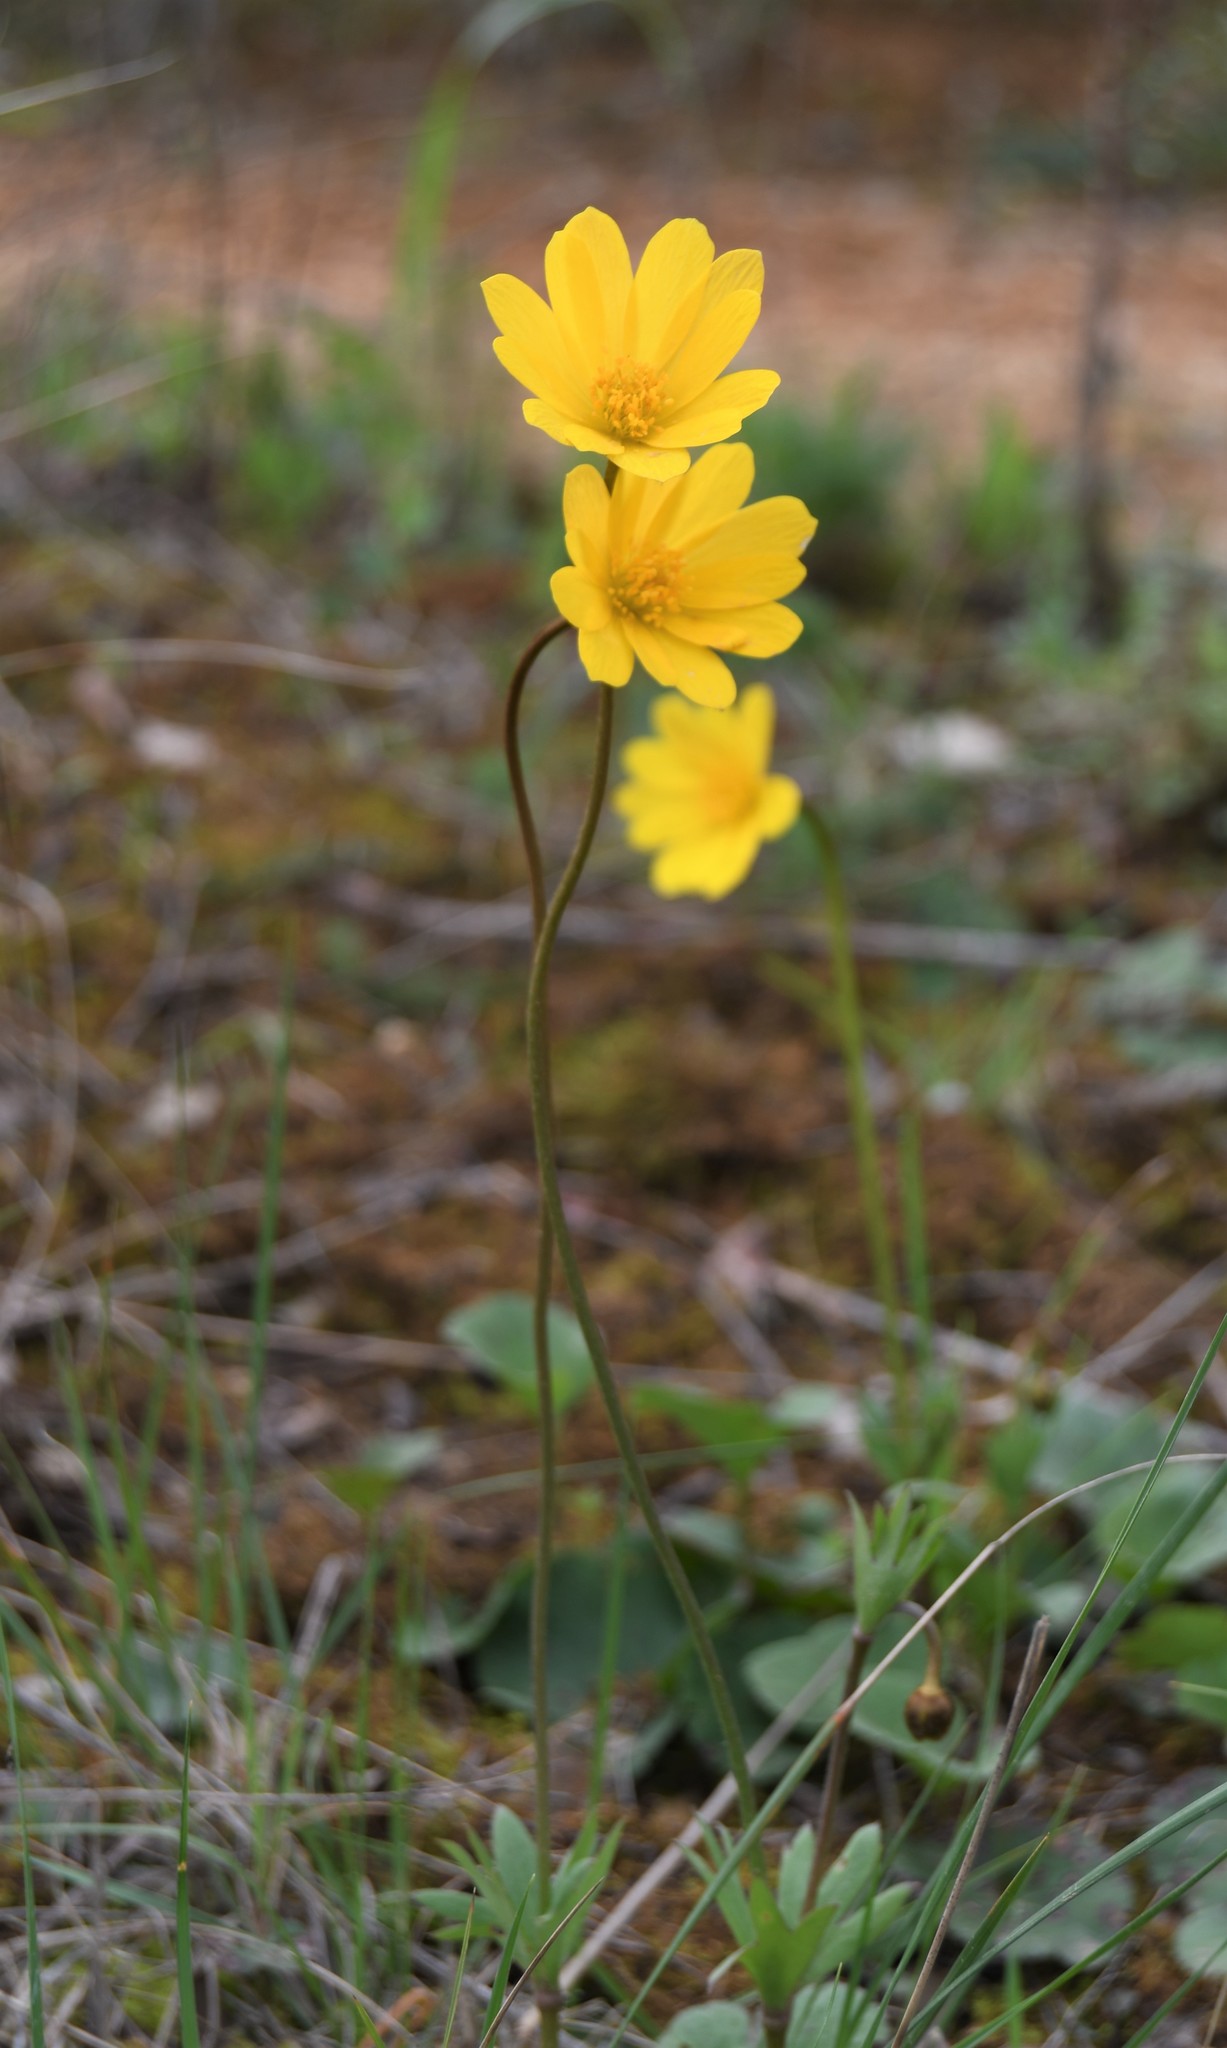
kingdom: Plantae
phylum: Tracheophyta
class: Magnoliopsida
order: Ranunculales
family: Ranunculaceae
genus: Anemone
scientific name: Anemone palmata
